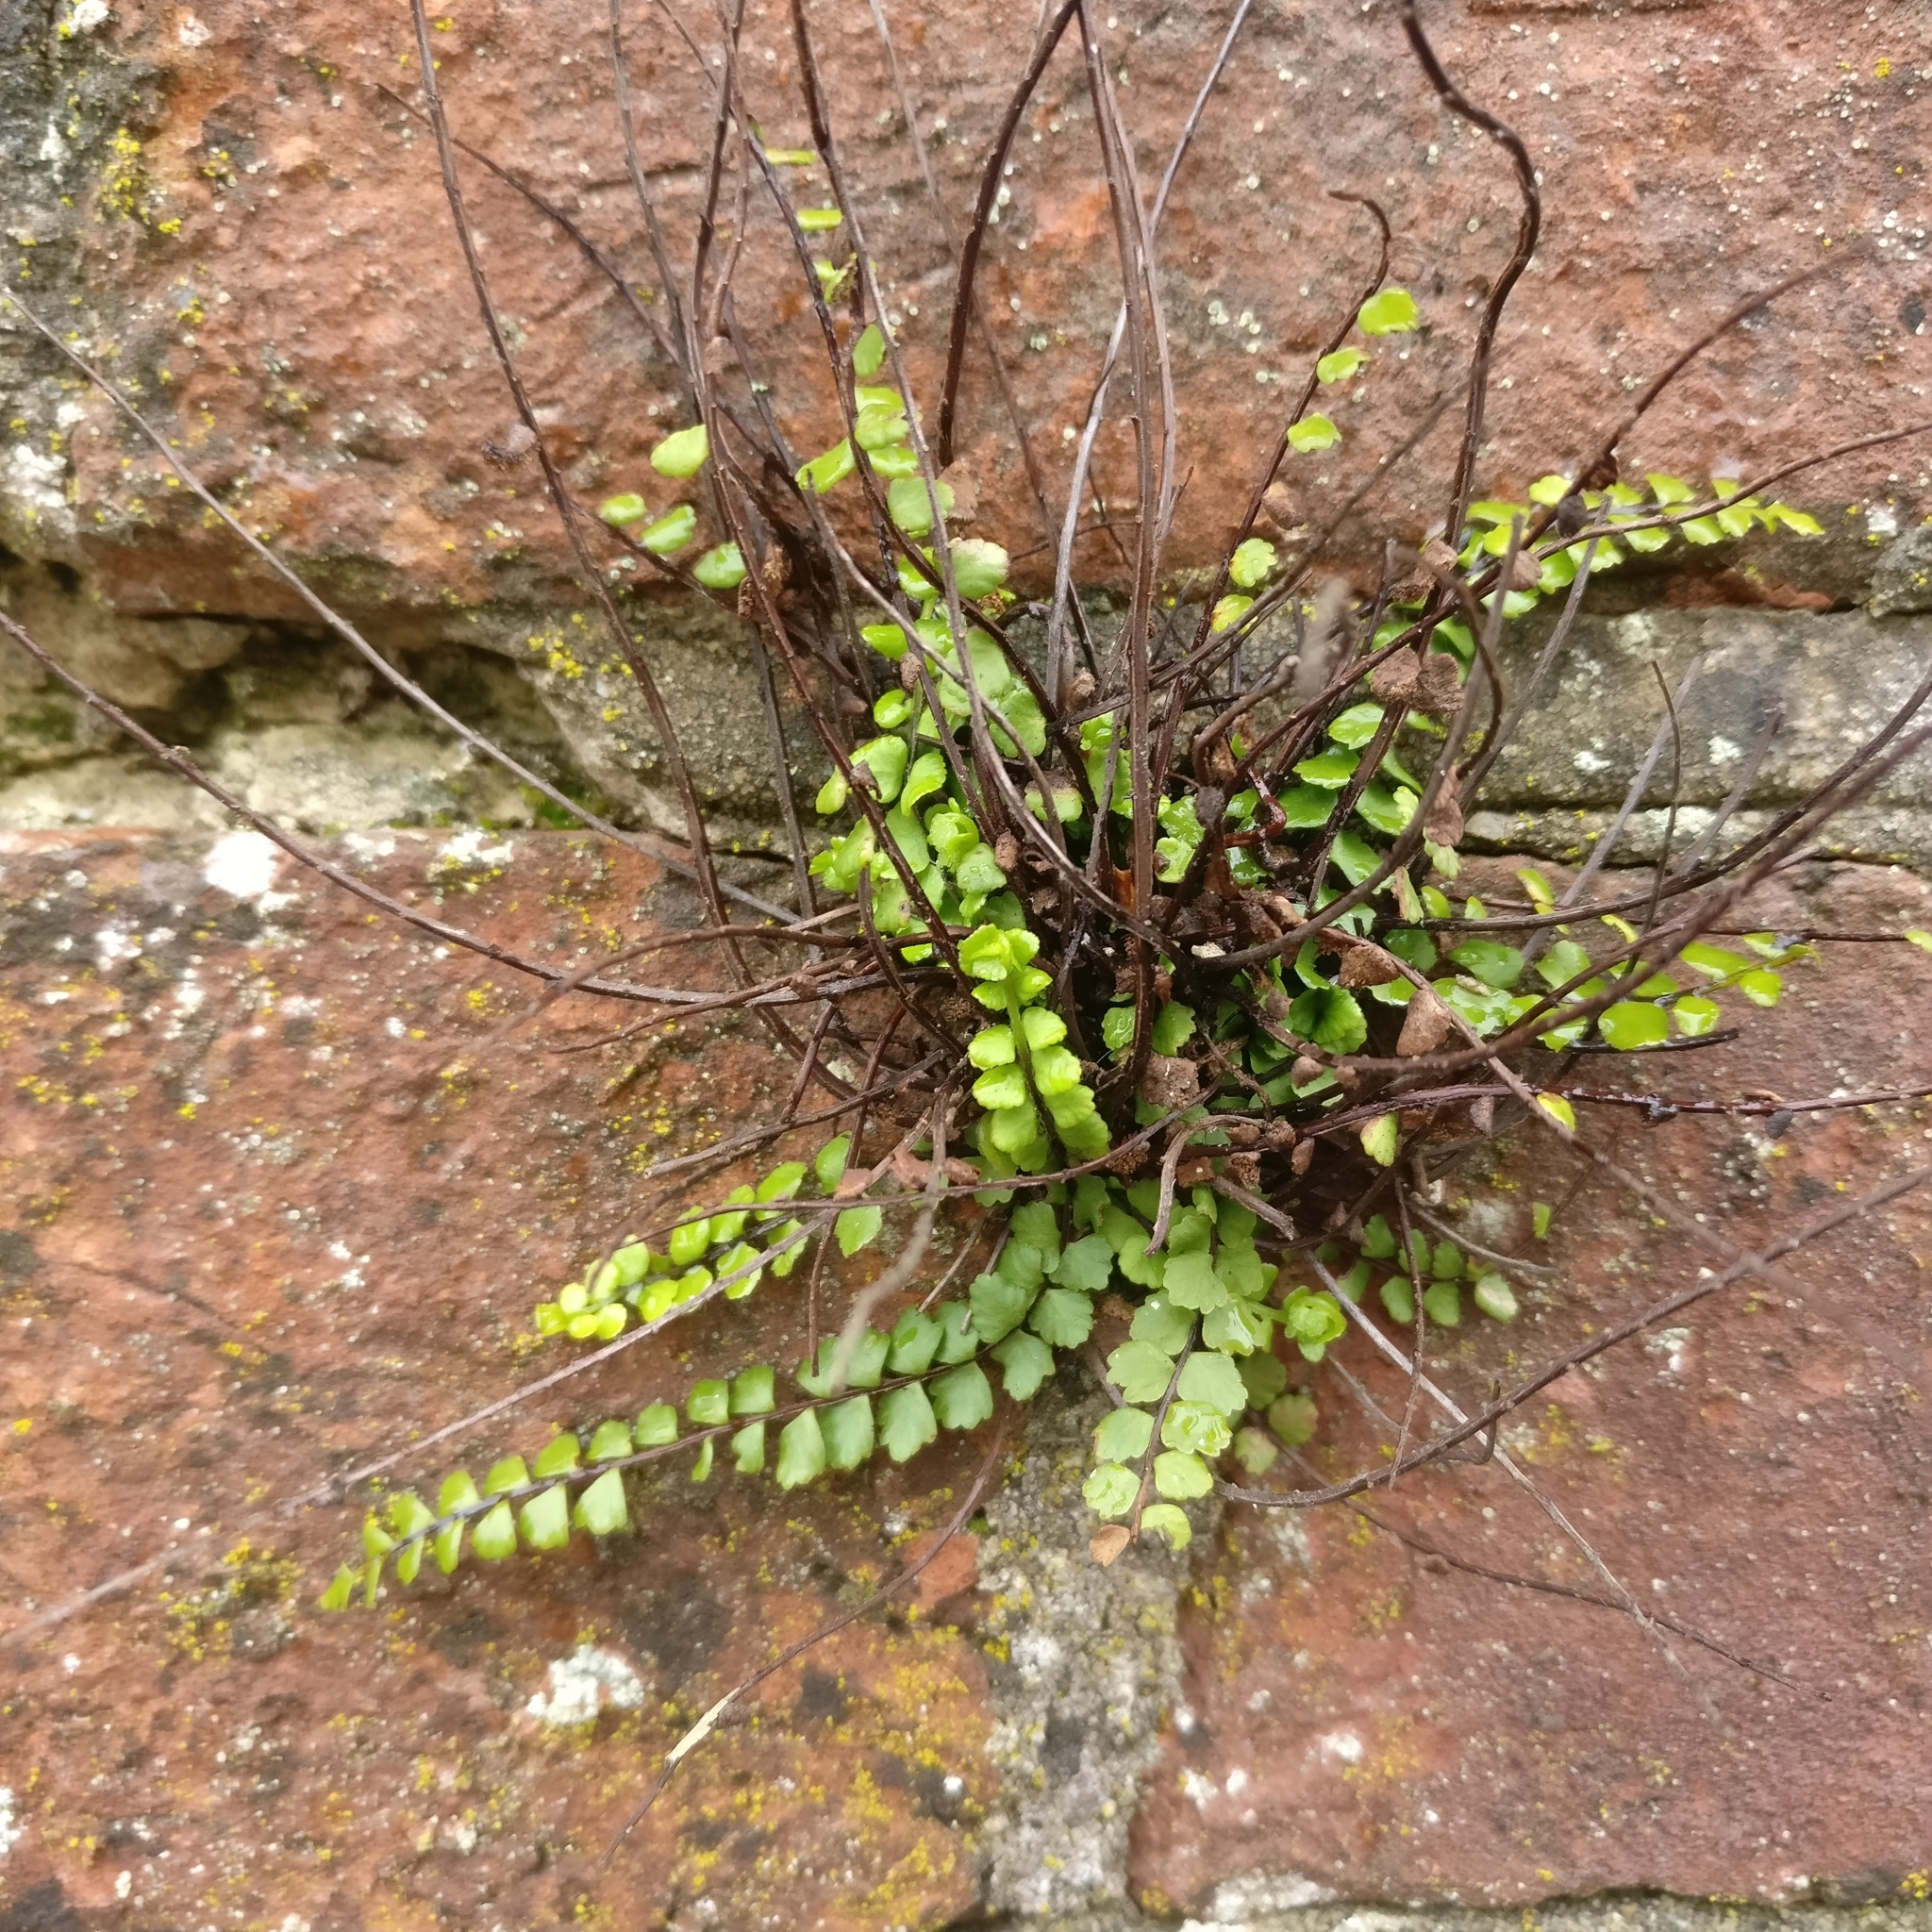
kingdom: Plantae
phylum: Tracheophyta
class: Polypodiopsida
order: Polypodiales
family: Aspleniaceae
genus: Asplenium
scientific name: Asplenium trichomanes
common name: Maidenhair spleenwort
